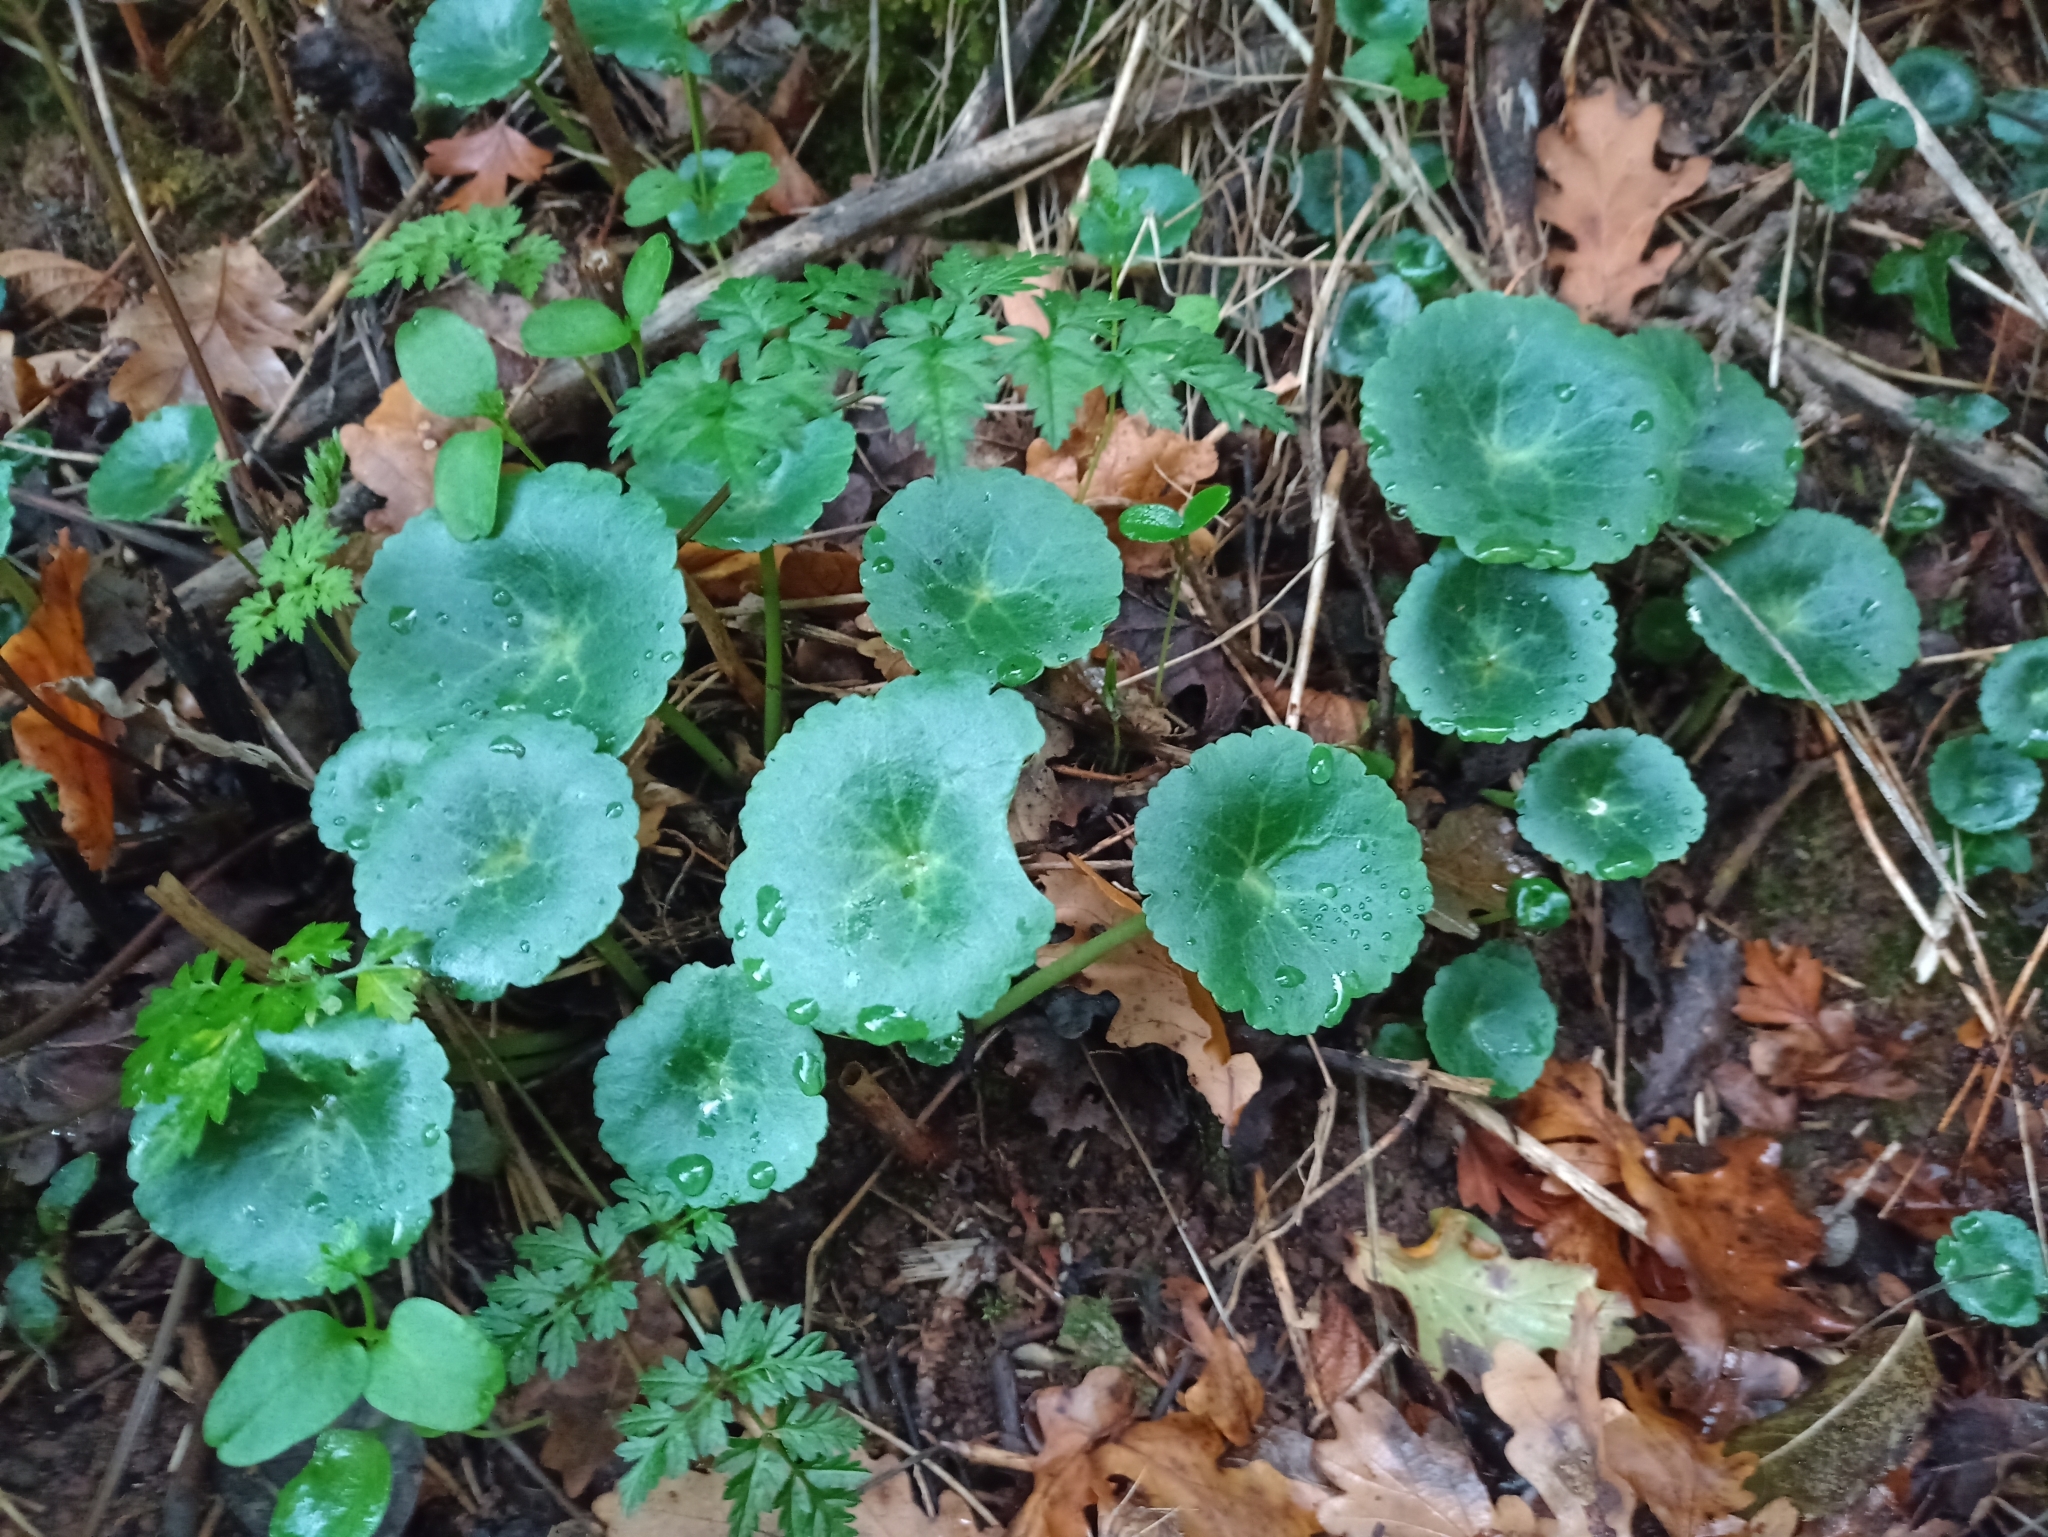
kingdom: Plantae
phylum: Tracheophyta
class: Magnoliopsida
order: Saxifragales
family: Crassulaceae
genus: Umbilicus
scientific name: Umbilicus rupestris
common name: Navelwort
